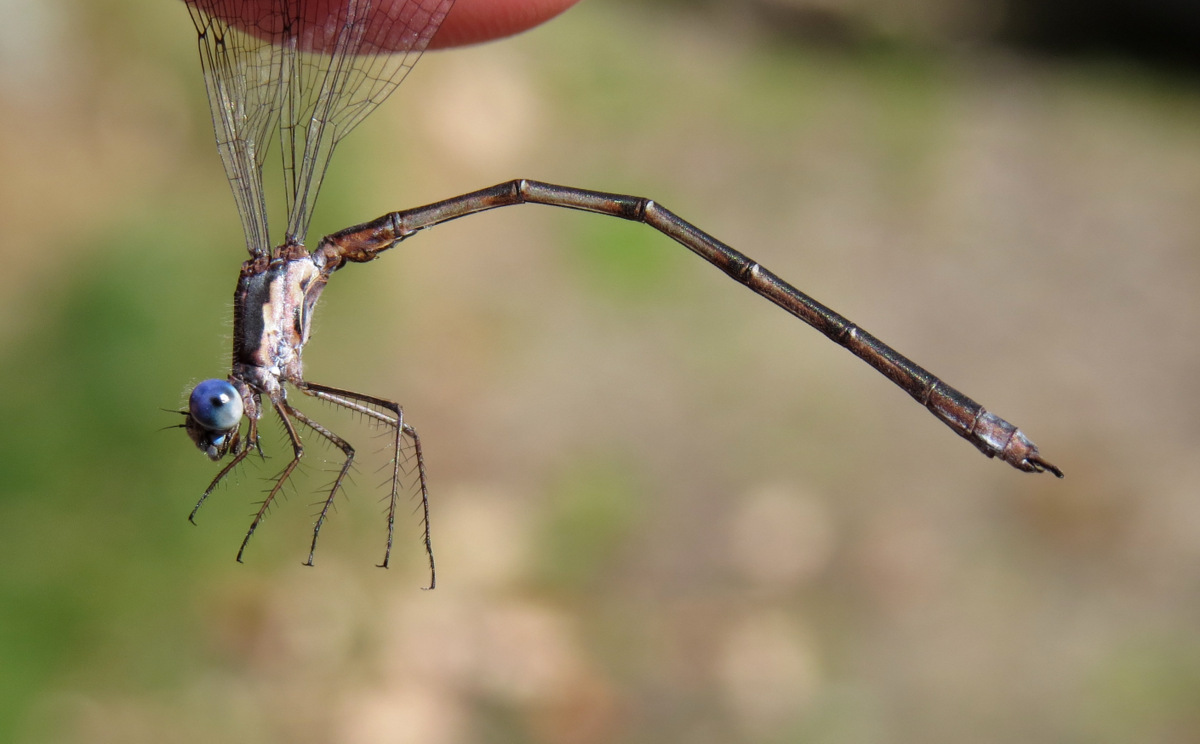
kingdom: Animalia
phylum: Arthropoda
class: Insecta
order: Odonata
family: Lestidae
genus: Lestes
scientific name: Lestes congener
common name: Spotted spreadwing
